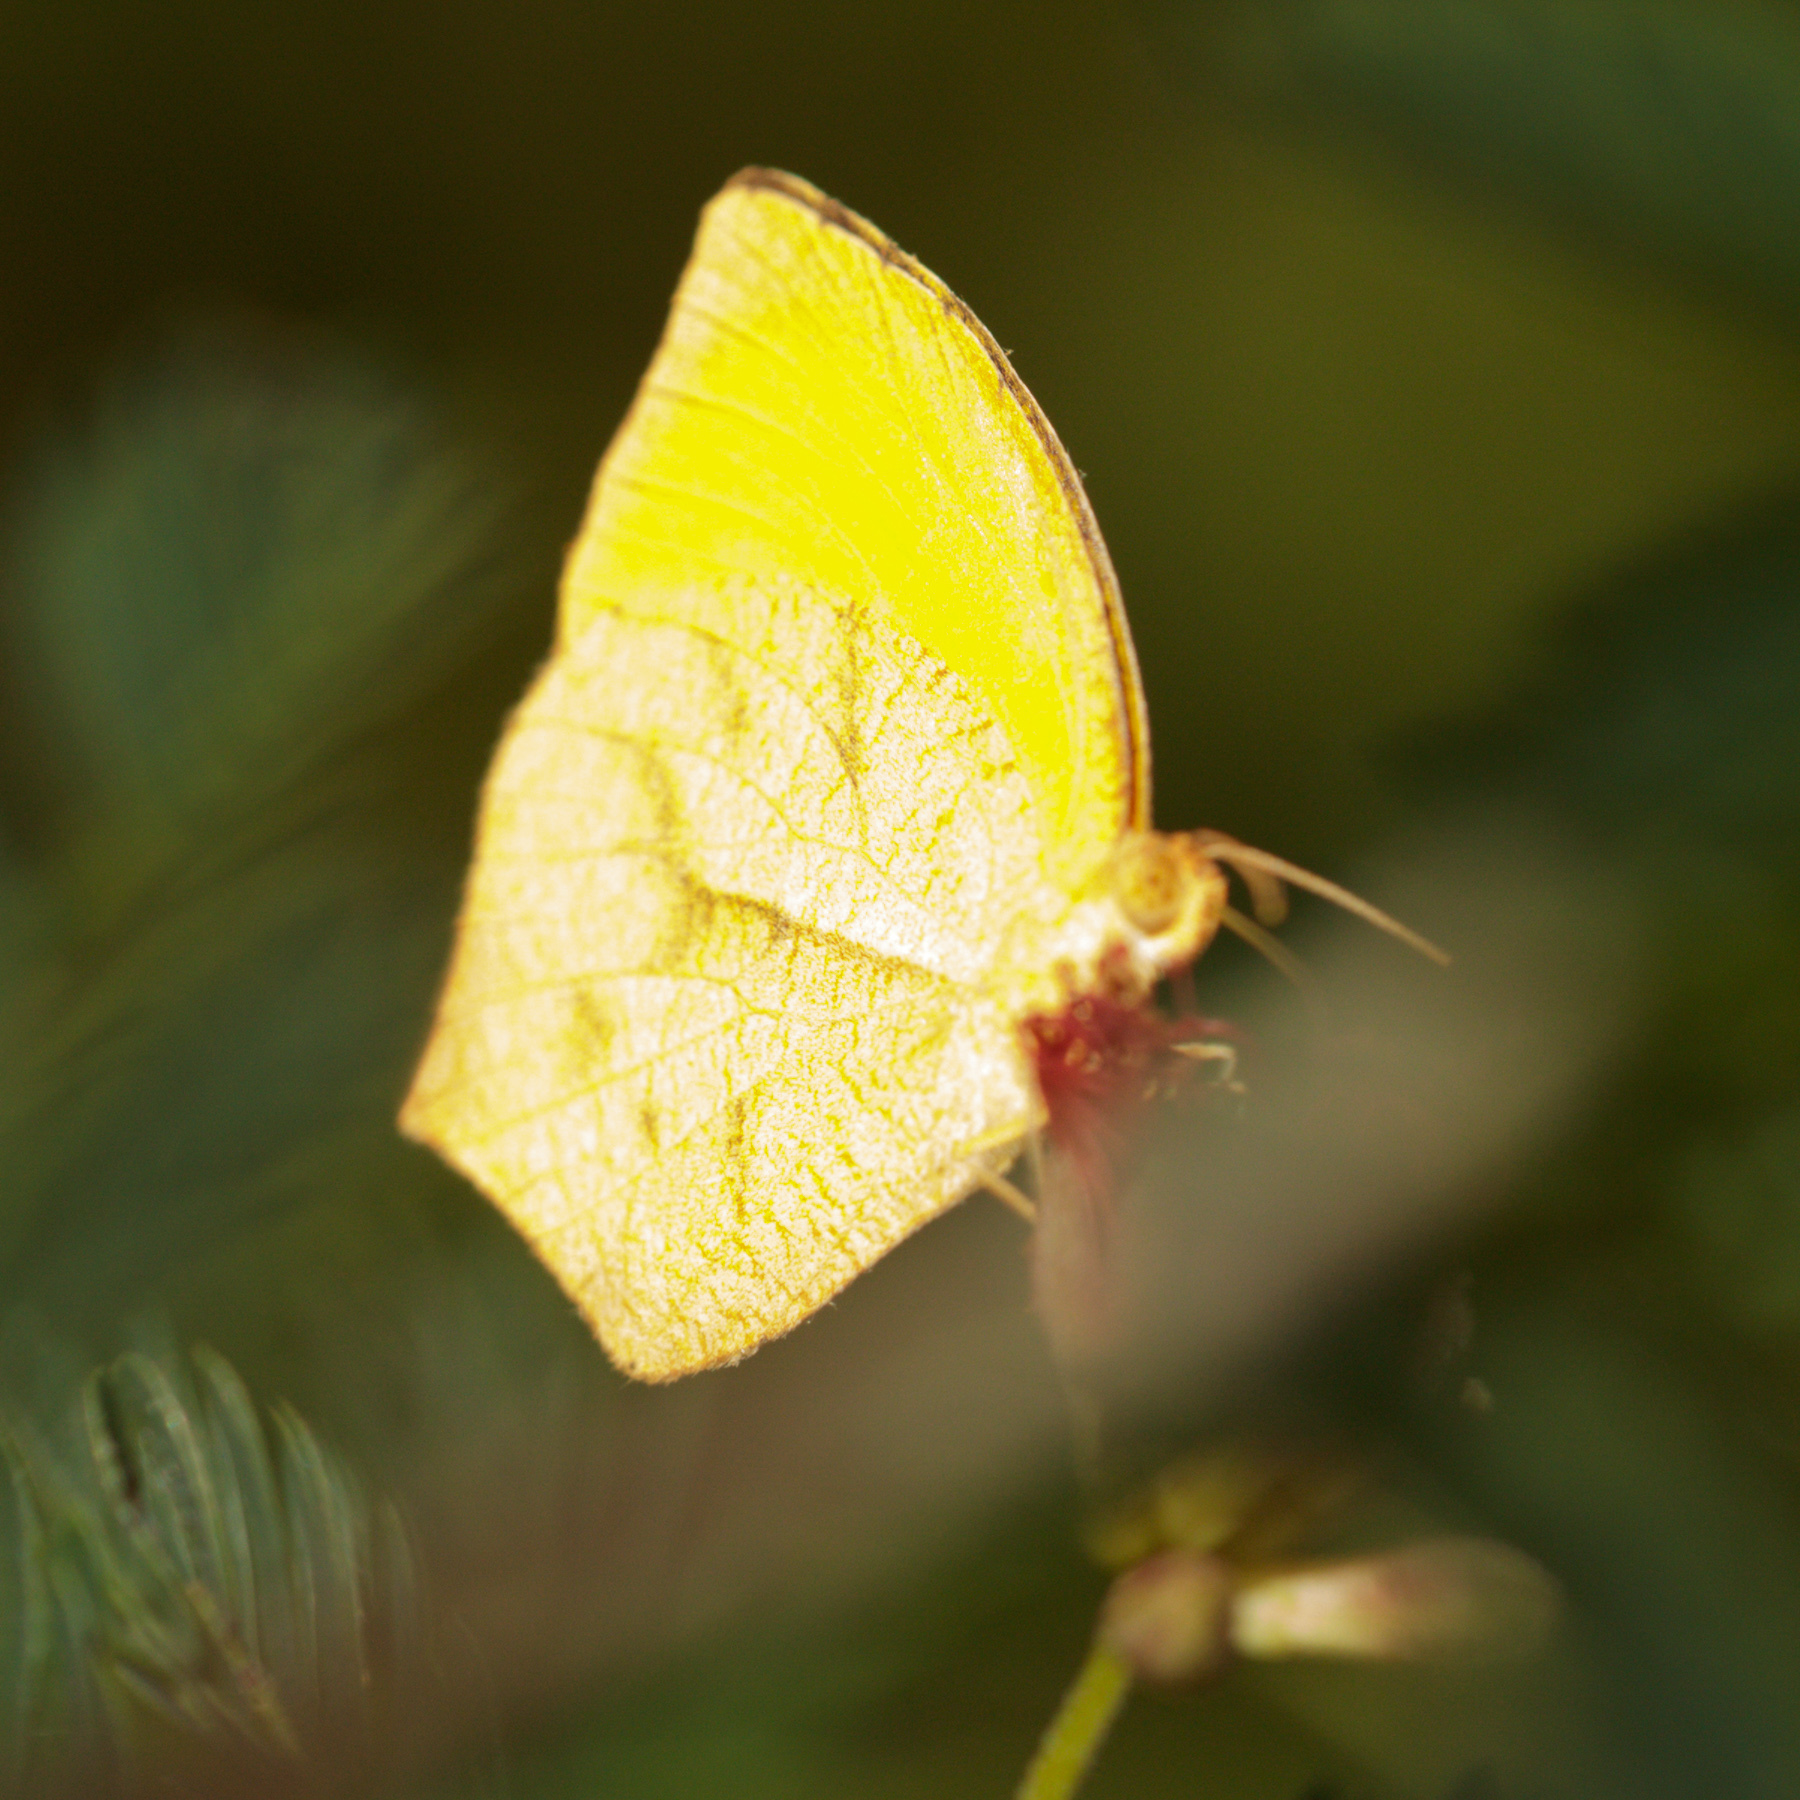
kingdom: Animalia
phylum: Arthropoda
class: Insecta
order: Lepidoptera
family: Pieridae
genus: Pyrisitia
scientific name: Pyrisitia proterpia
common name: Tailed orange
